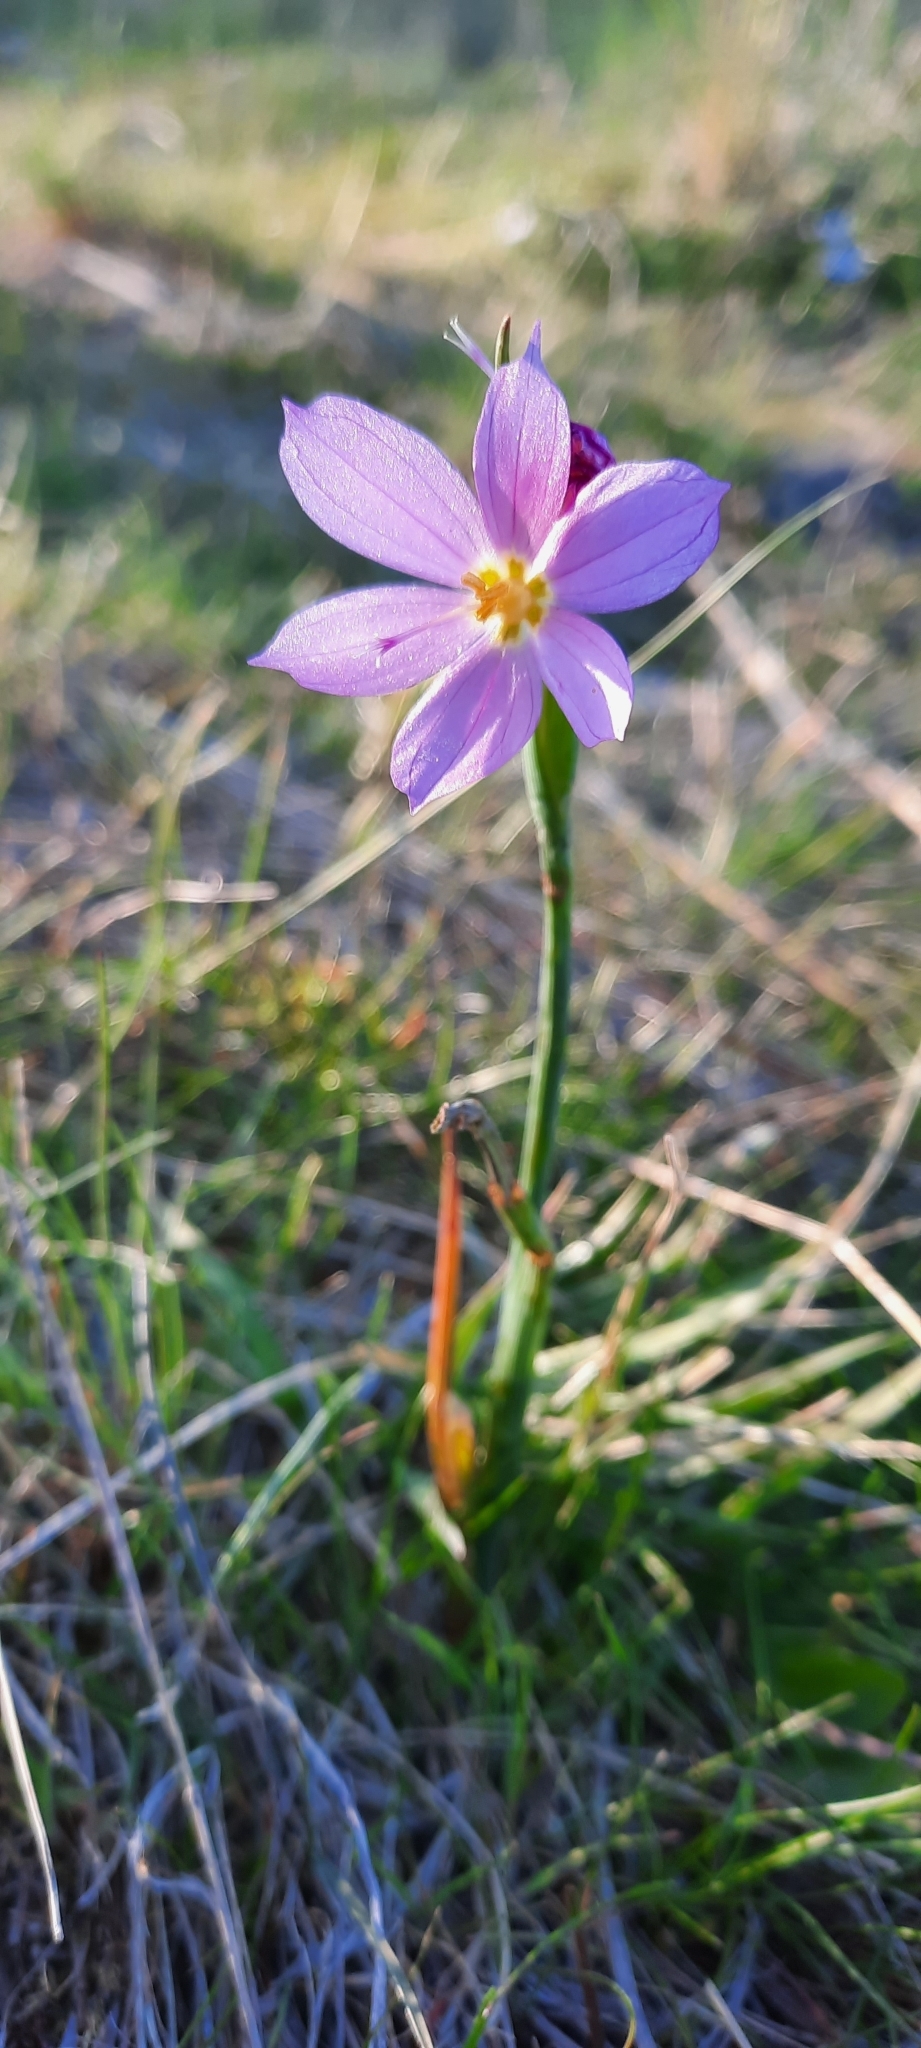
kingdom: Plantae
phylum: Tracheophyta
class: Liliopsida
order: Asparagales
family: Iridaceae
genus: Olsynium
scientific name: Olsynium douglasii
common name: Douglas' grasswidow
